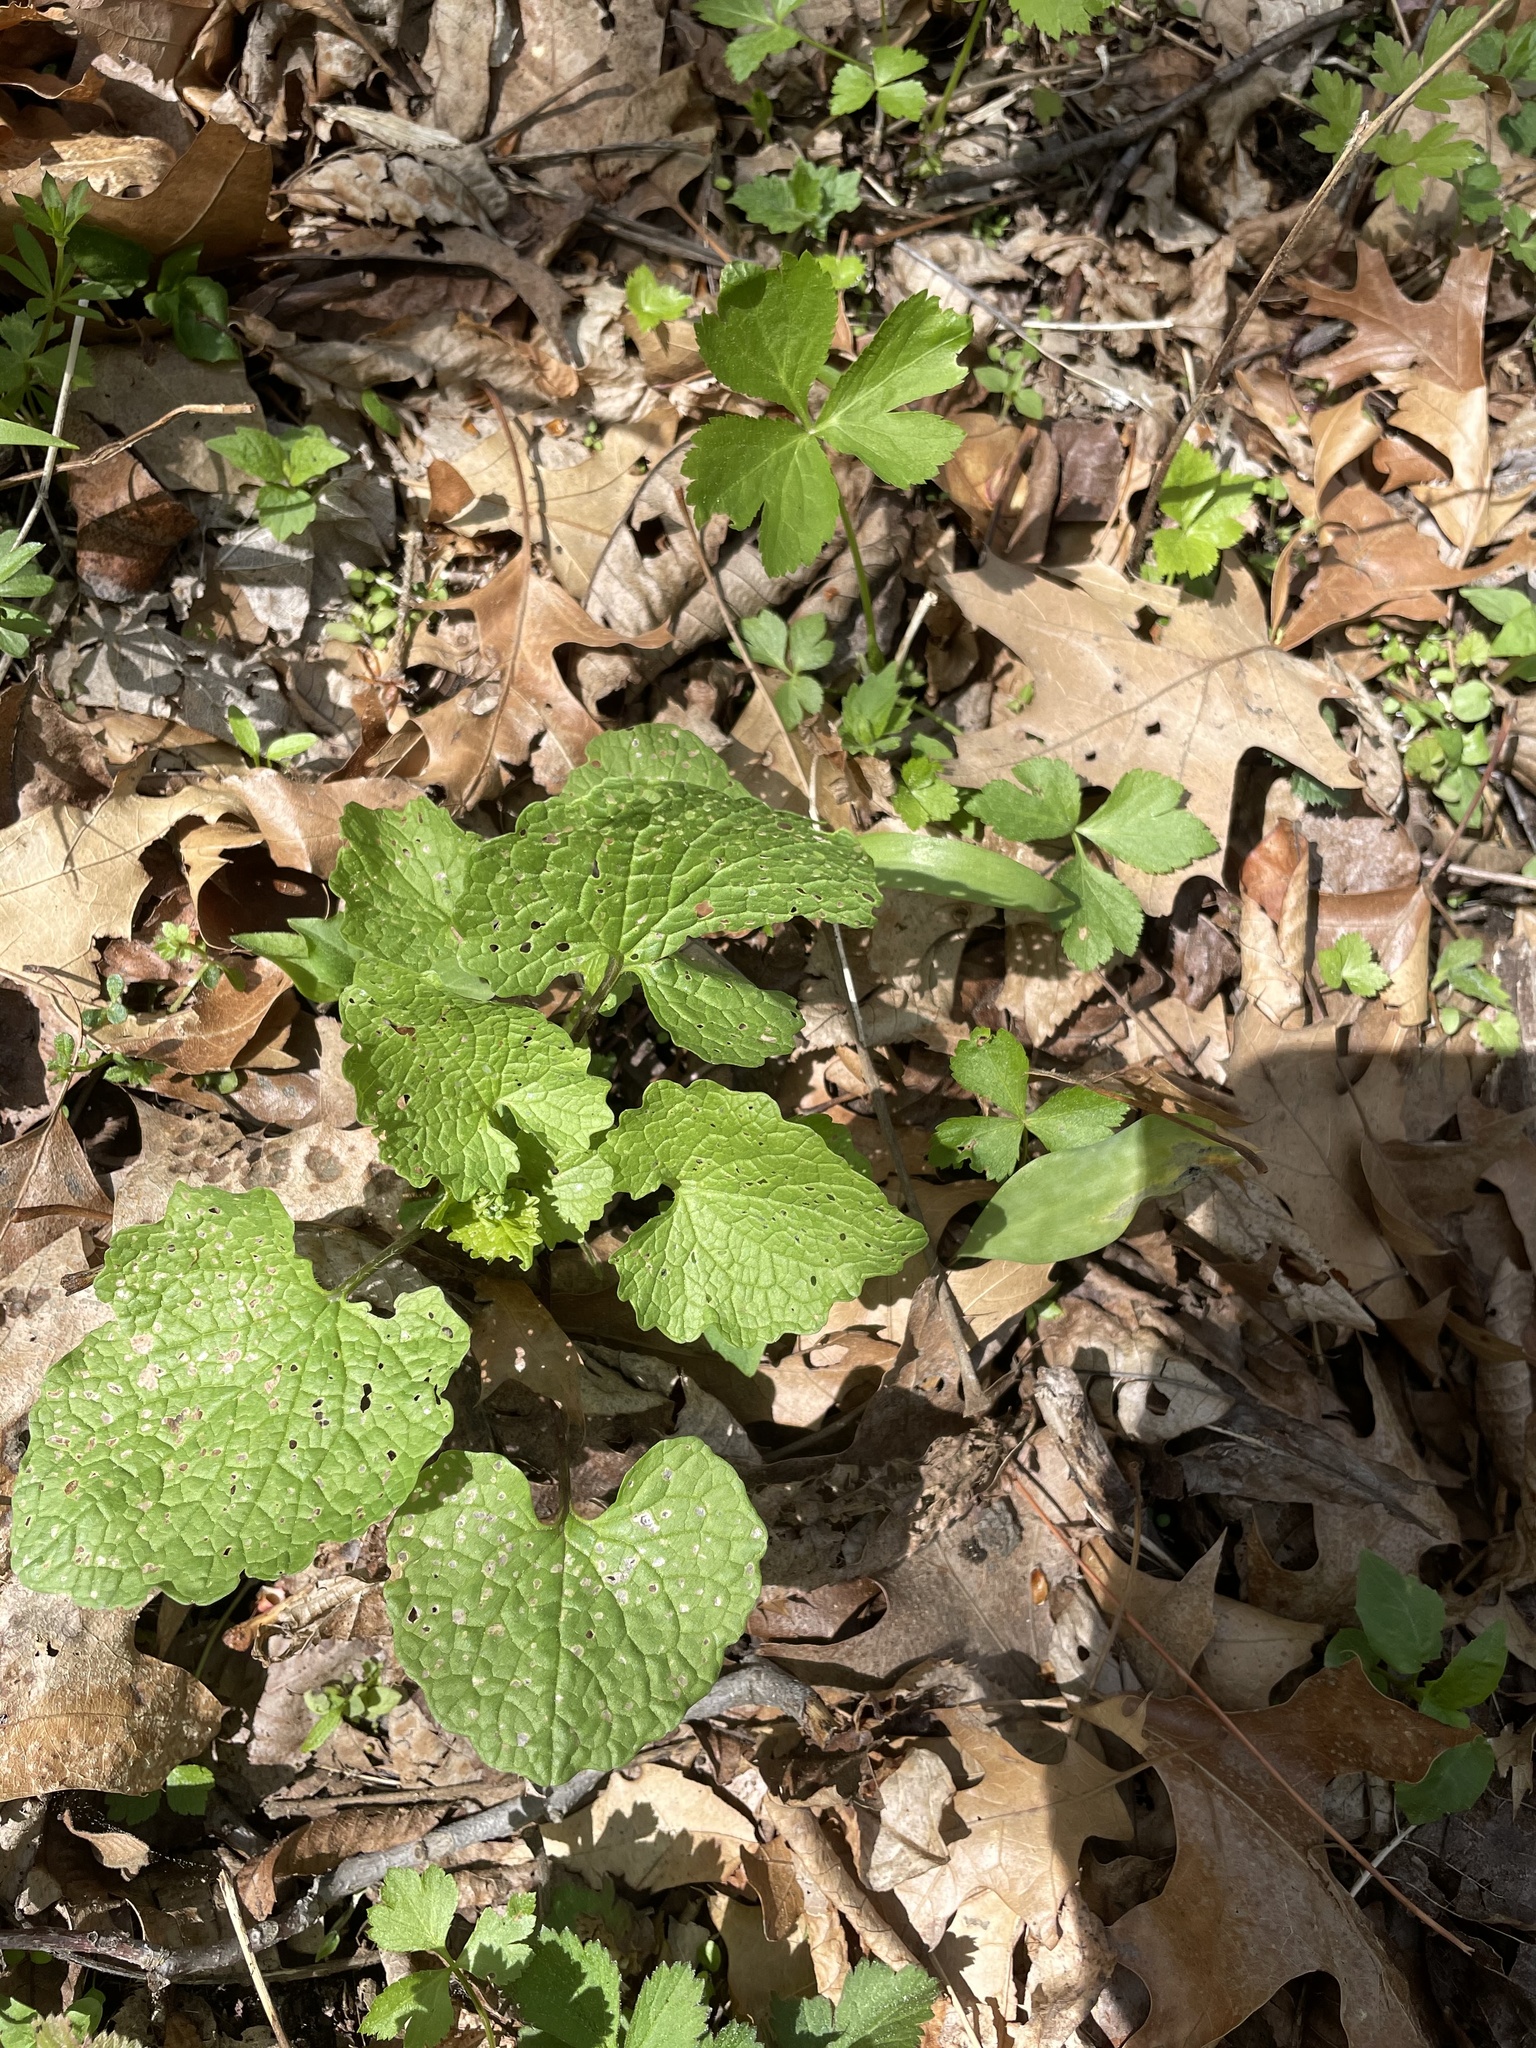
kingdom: Plantae
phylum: Tracheophyta
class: Magnoliopsida
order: Brassicales
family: Brassicaceae
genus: Alliaria
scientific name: Alliaria petiolata
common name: Garlic mustard
